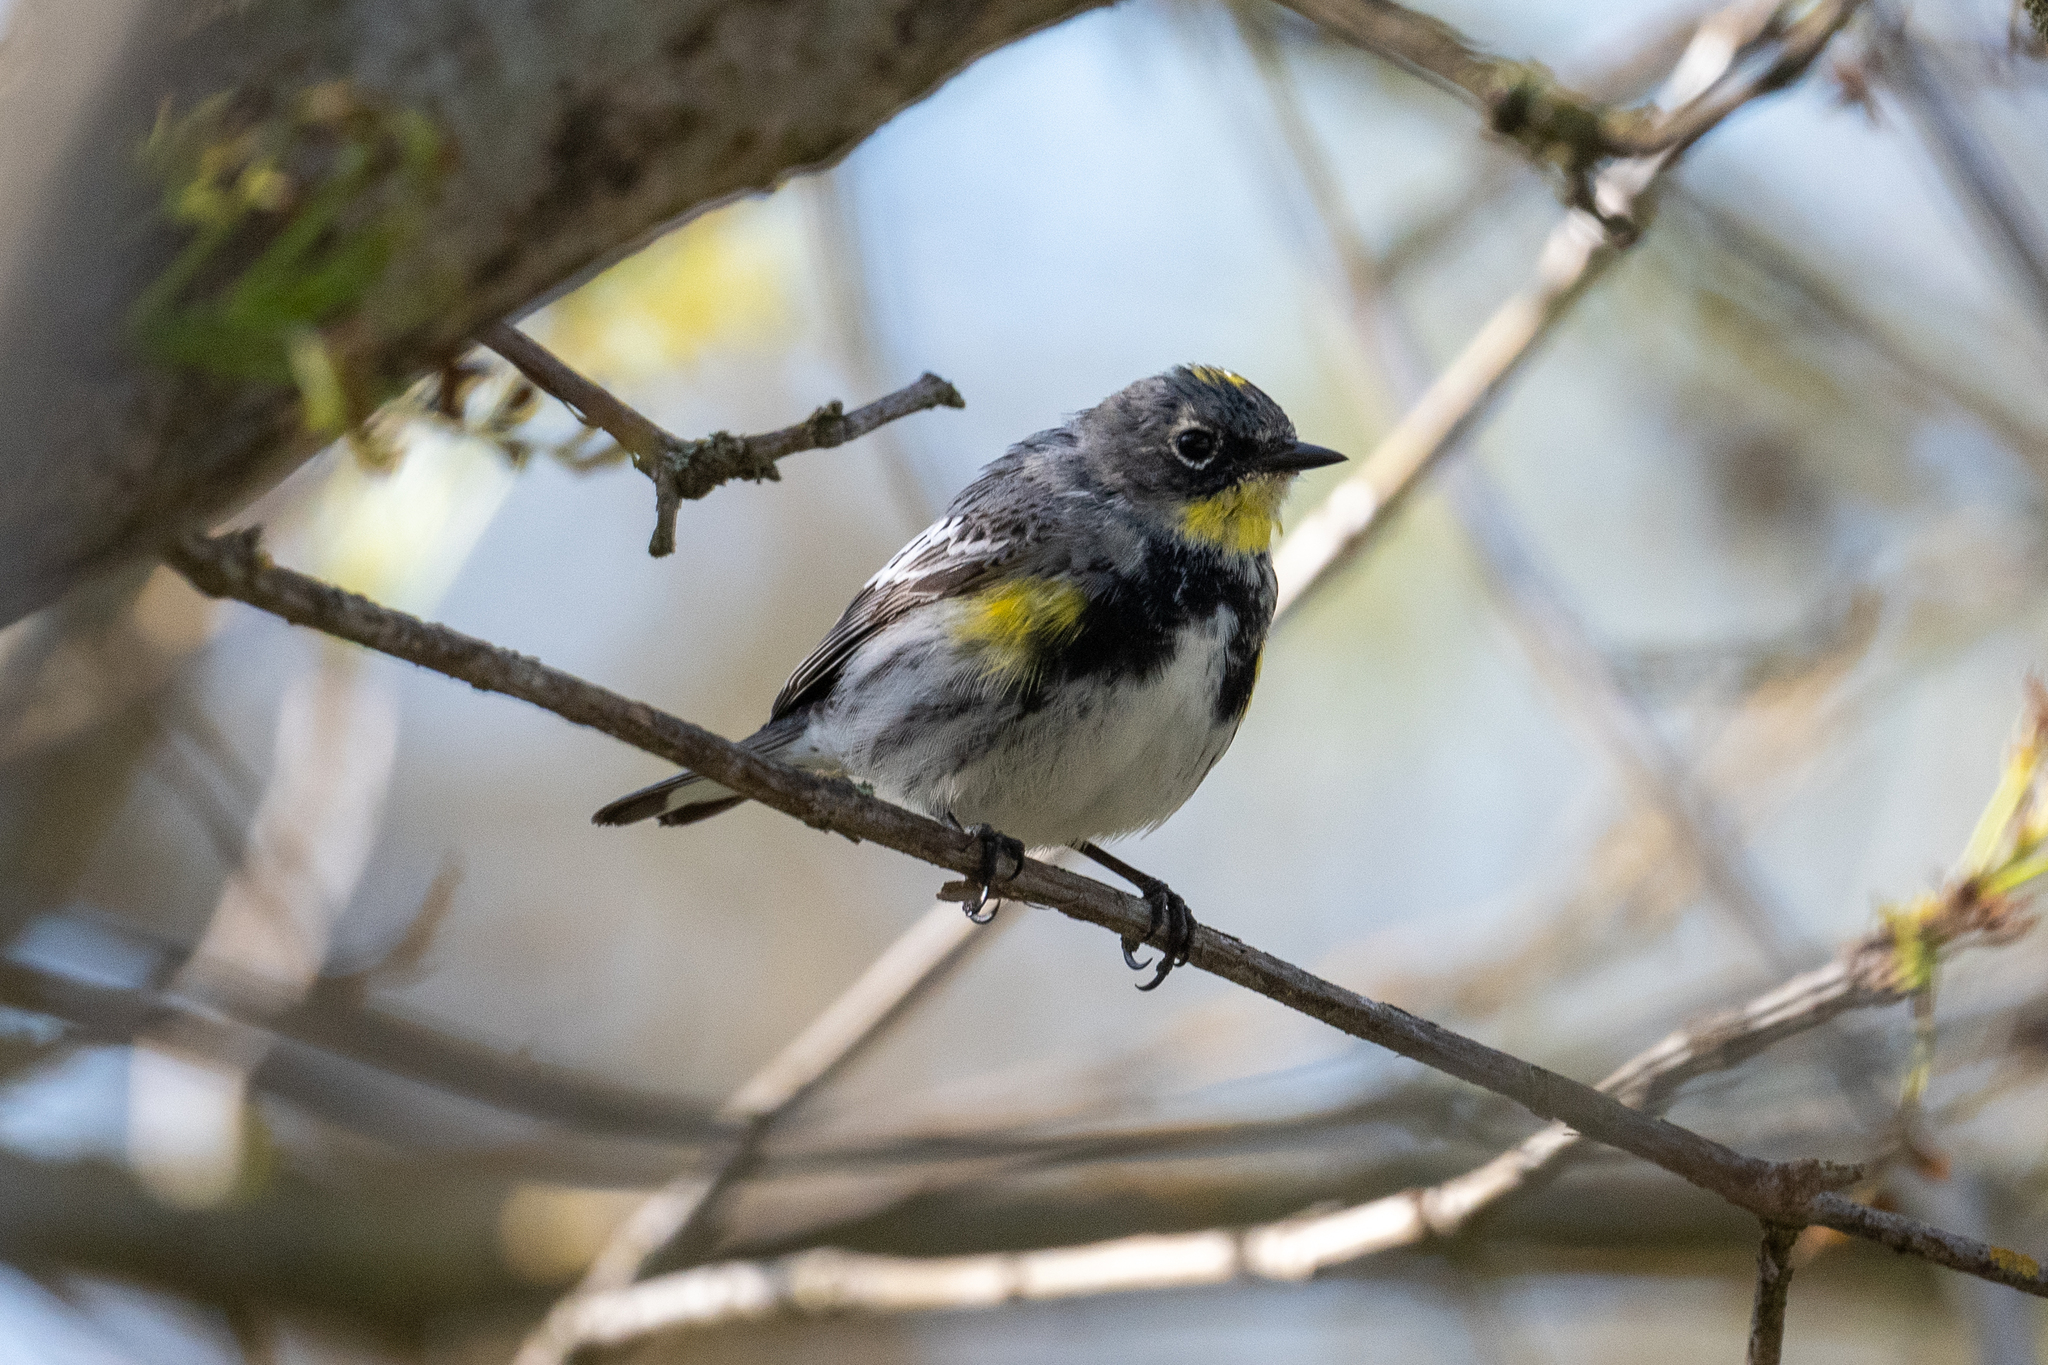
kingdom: Animalia
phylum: Chordata
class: Aves
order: Passeriformes
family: Parulidae
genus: Setophaga
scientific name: Setophaga coronata
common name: Myrtle warbler
